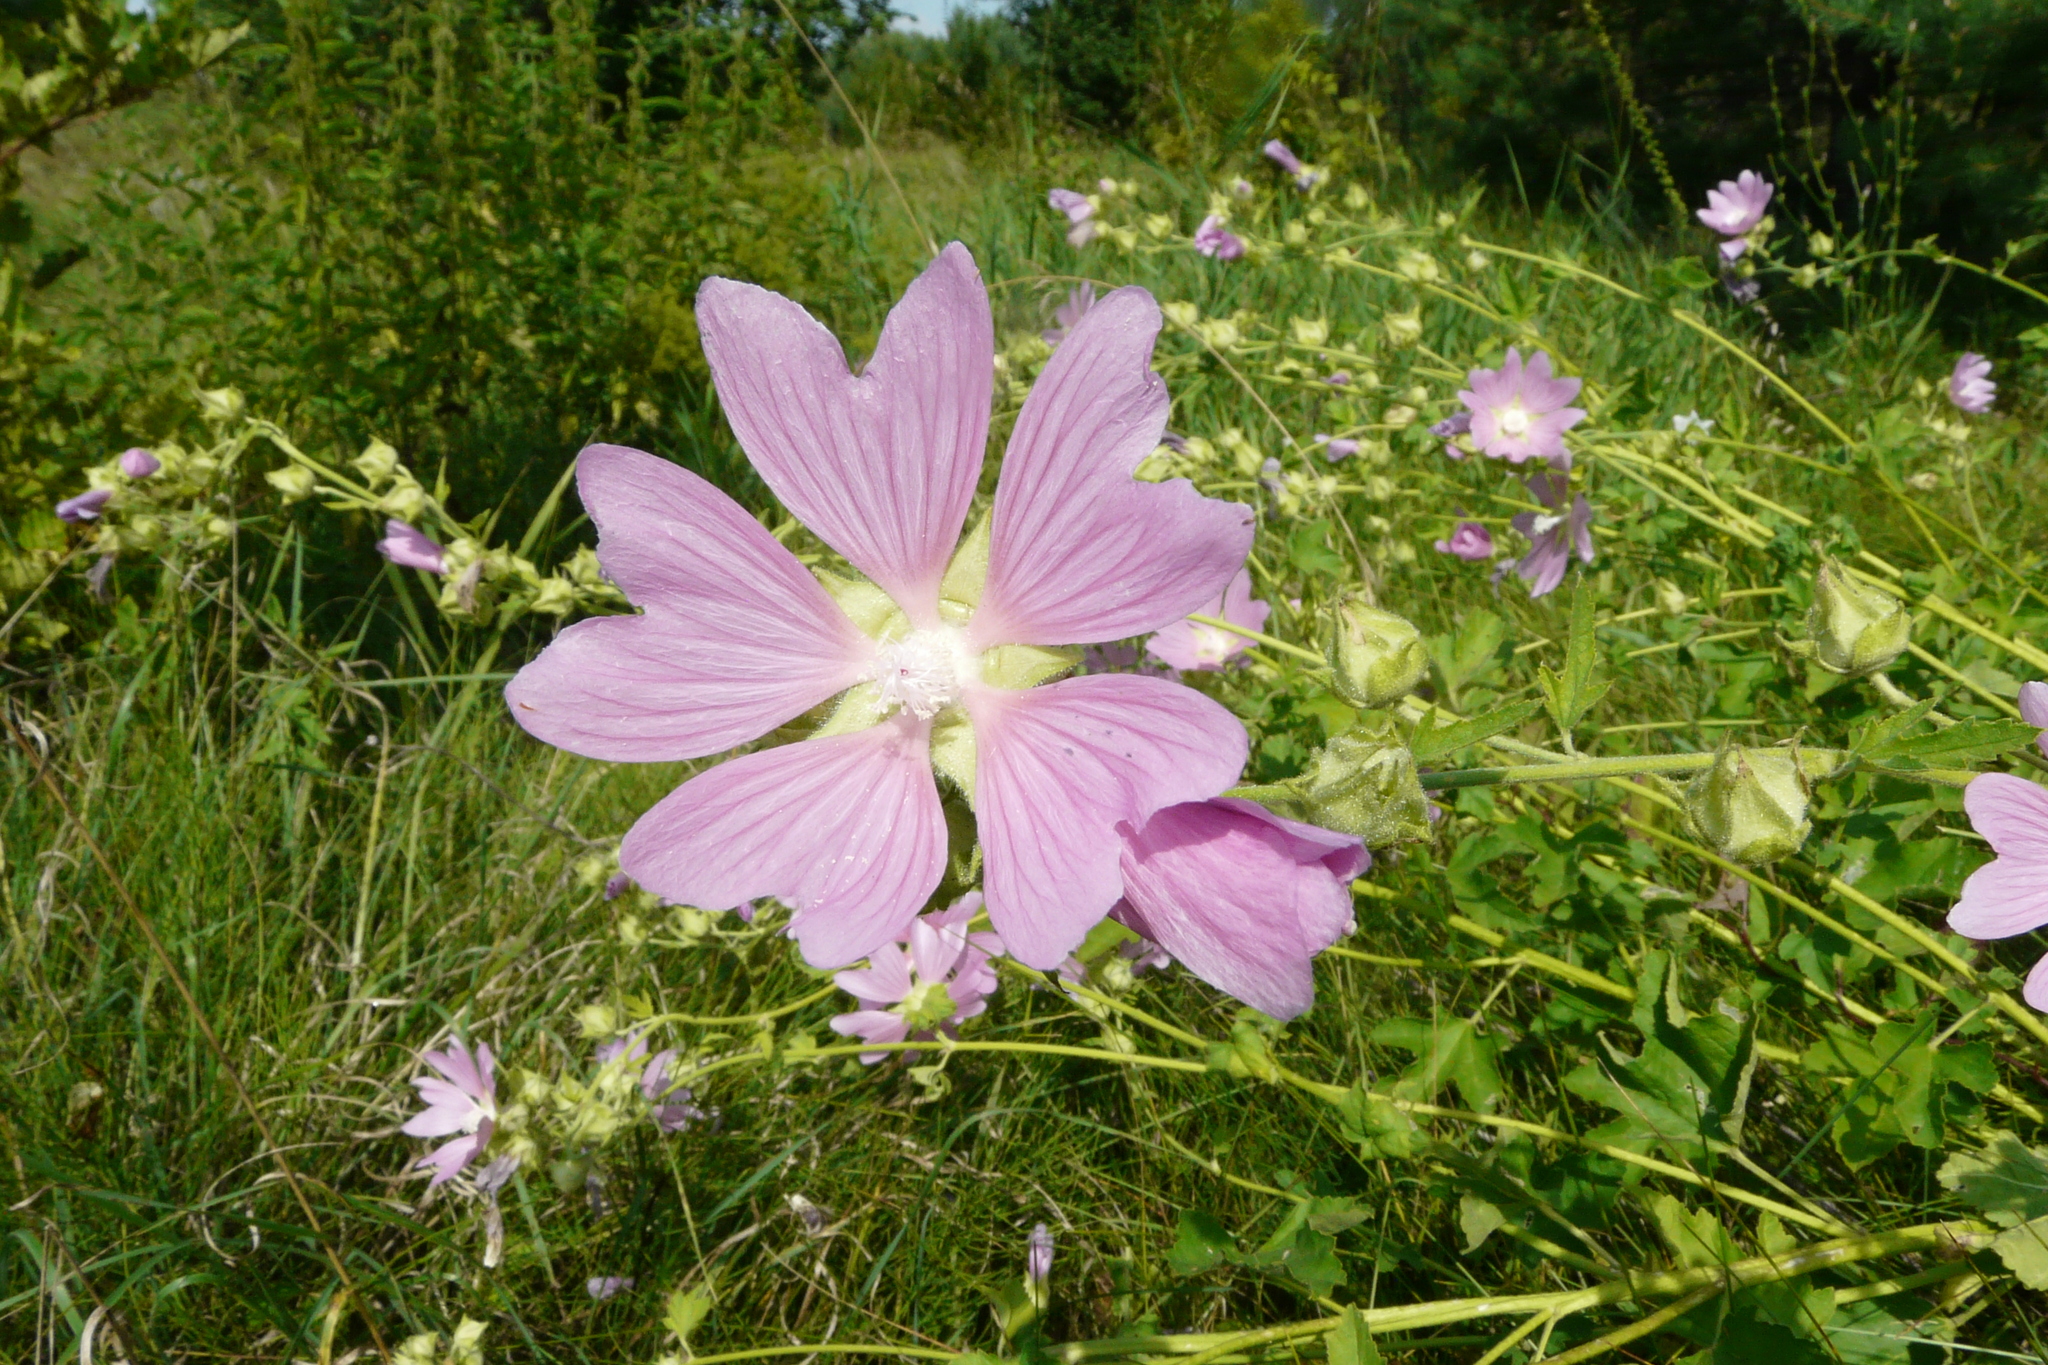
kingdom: Plantae
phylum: Tracheophyta
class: Magnoliopsida
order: Malvales
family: Malvaceae
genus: Malva
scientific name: Malva thuringiaca
